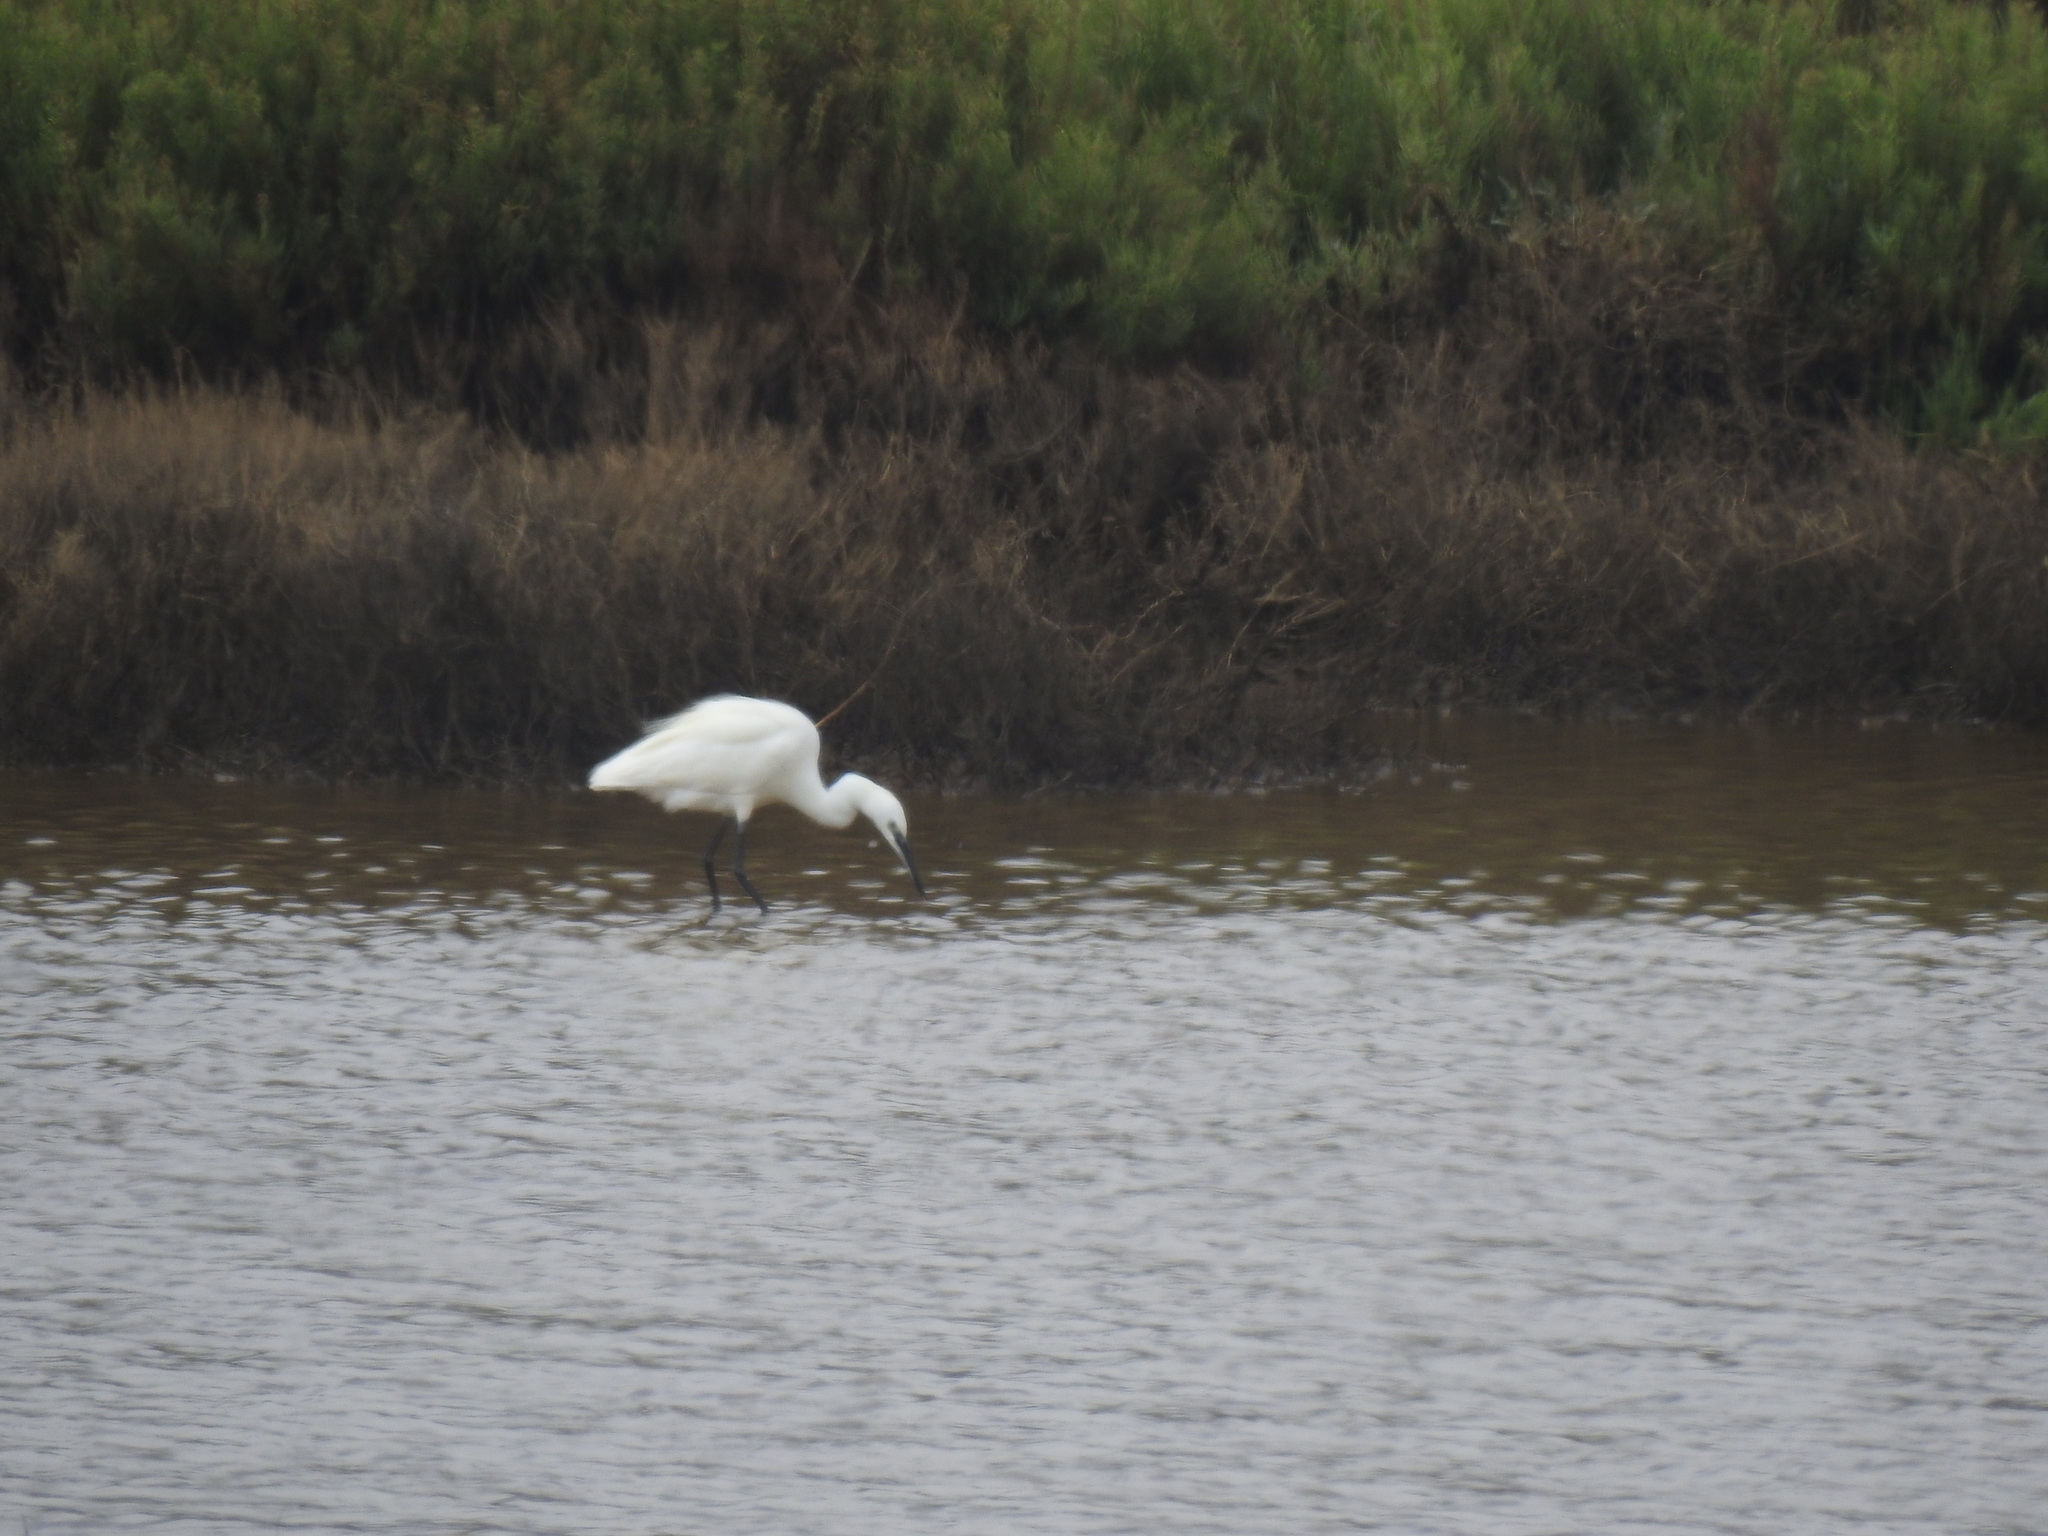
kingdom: Animalia
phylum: Chordata
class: Aves
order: Pelecaniformes
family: Ardeidae
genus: Egretta
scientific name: Egretta garzetta
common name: Little egret
